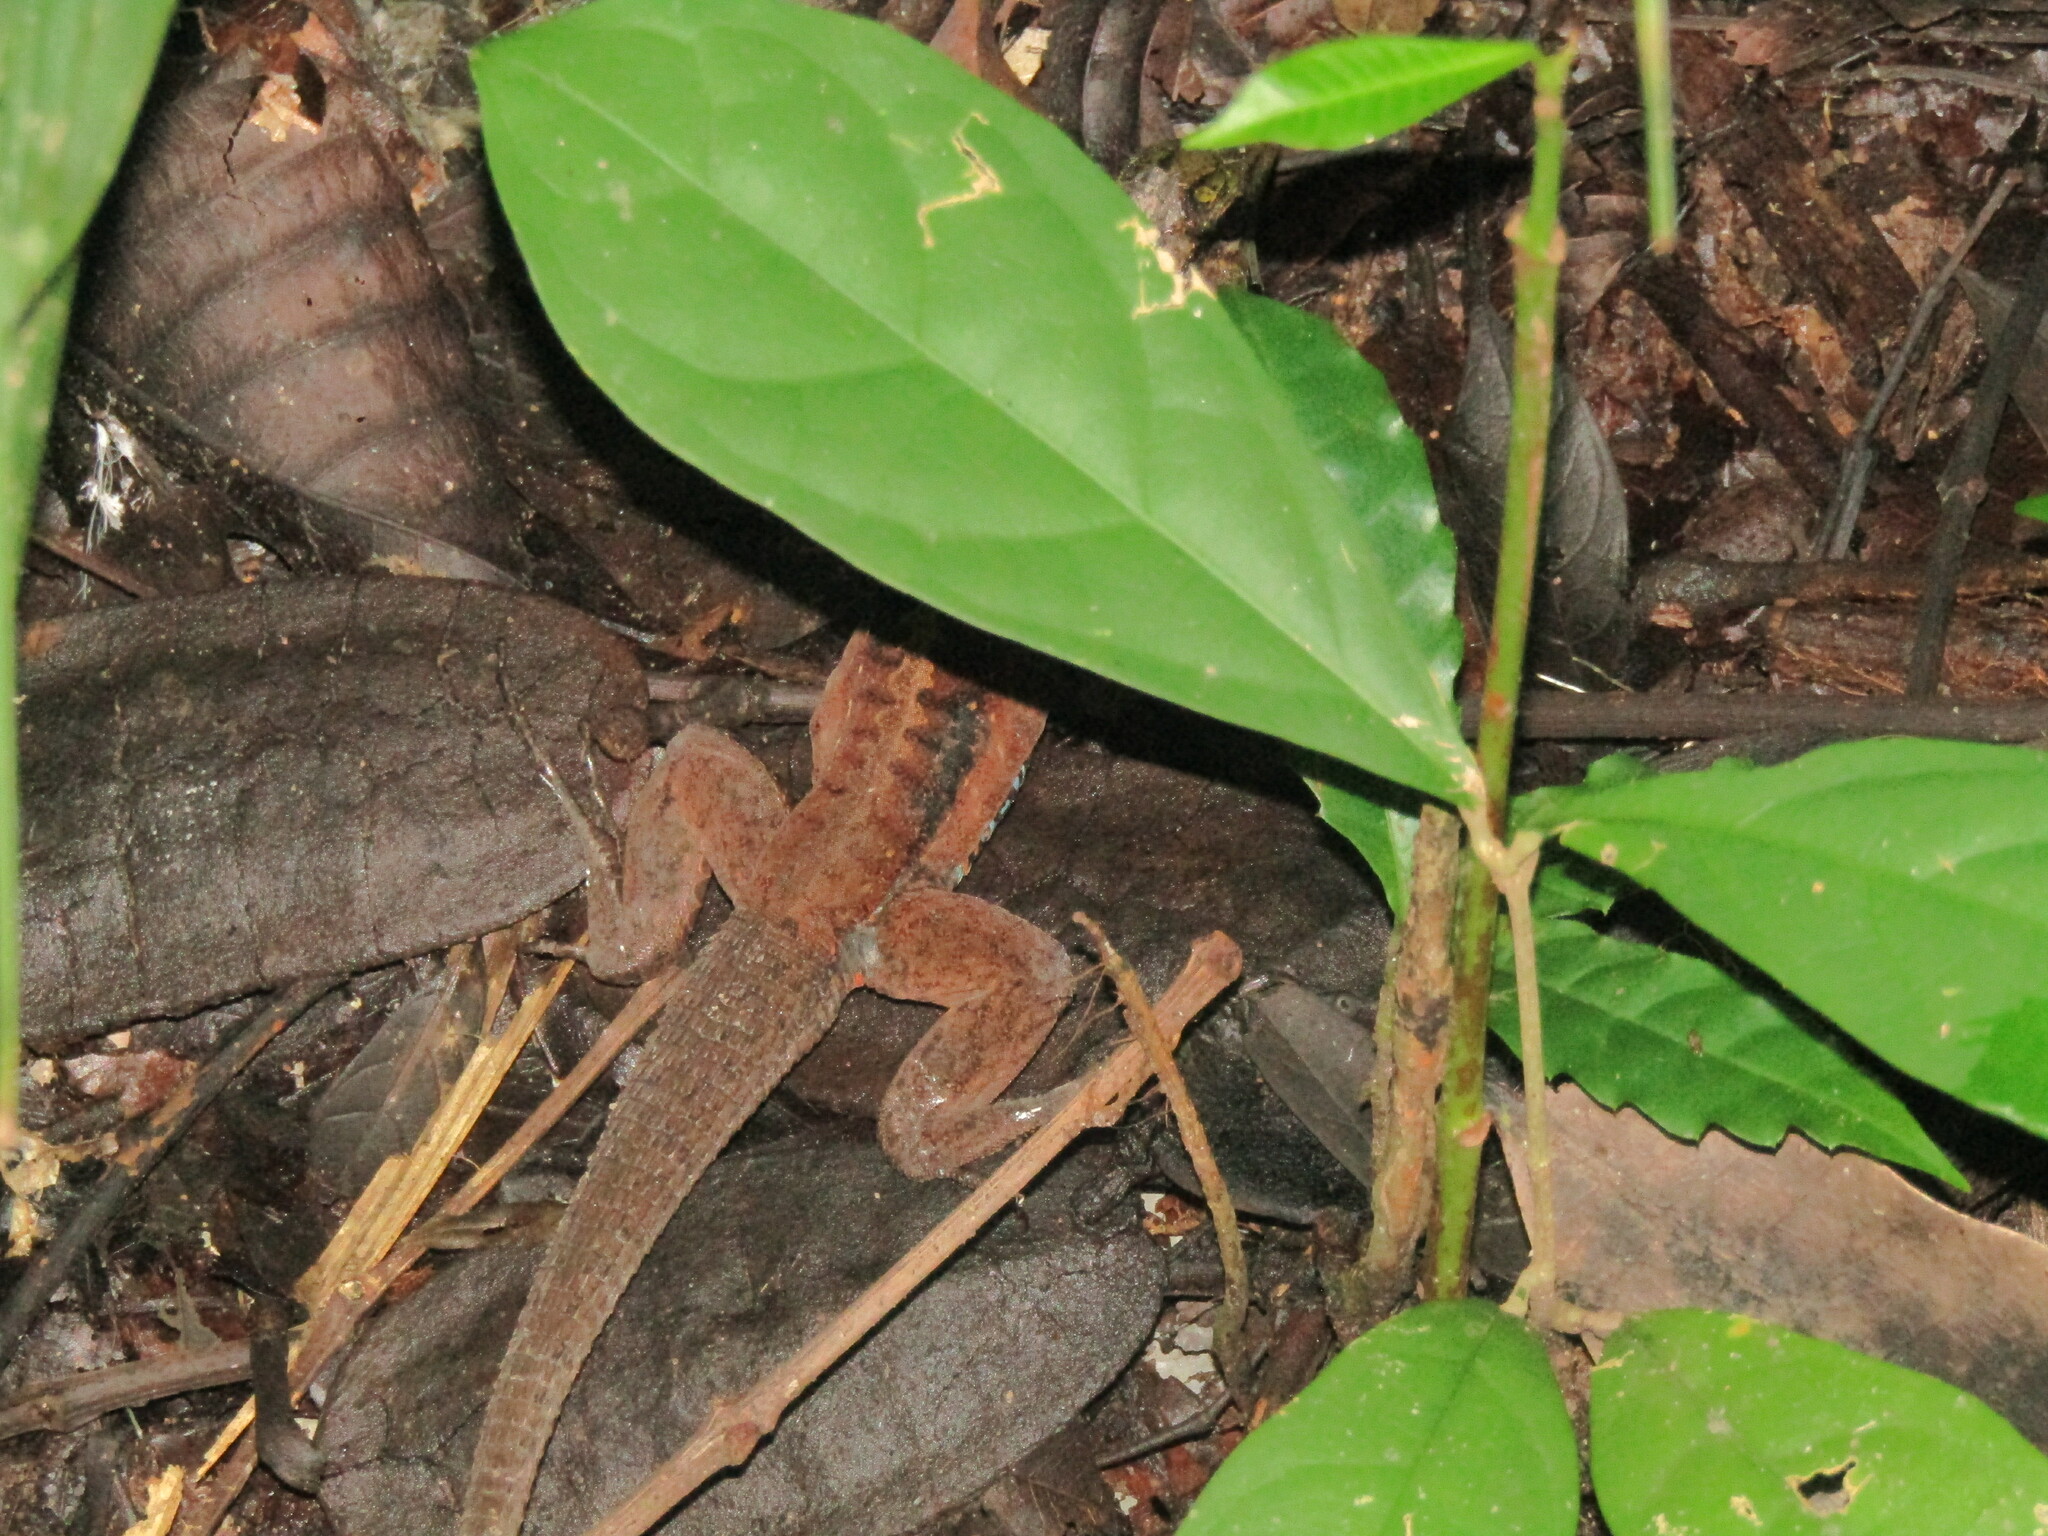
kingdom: Animalia
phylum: Chordata
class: Squamata
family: Teiidae
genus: Holcosus
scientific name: Holcosus festivus
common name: Middle american ameiva
